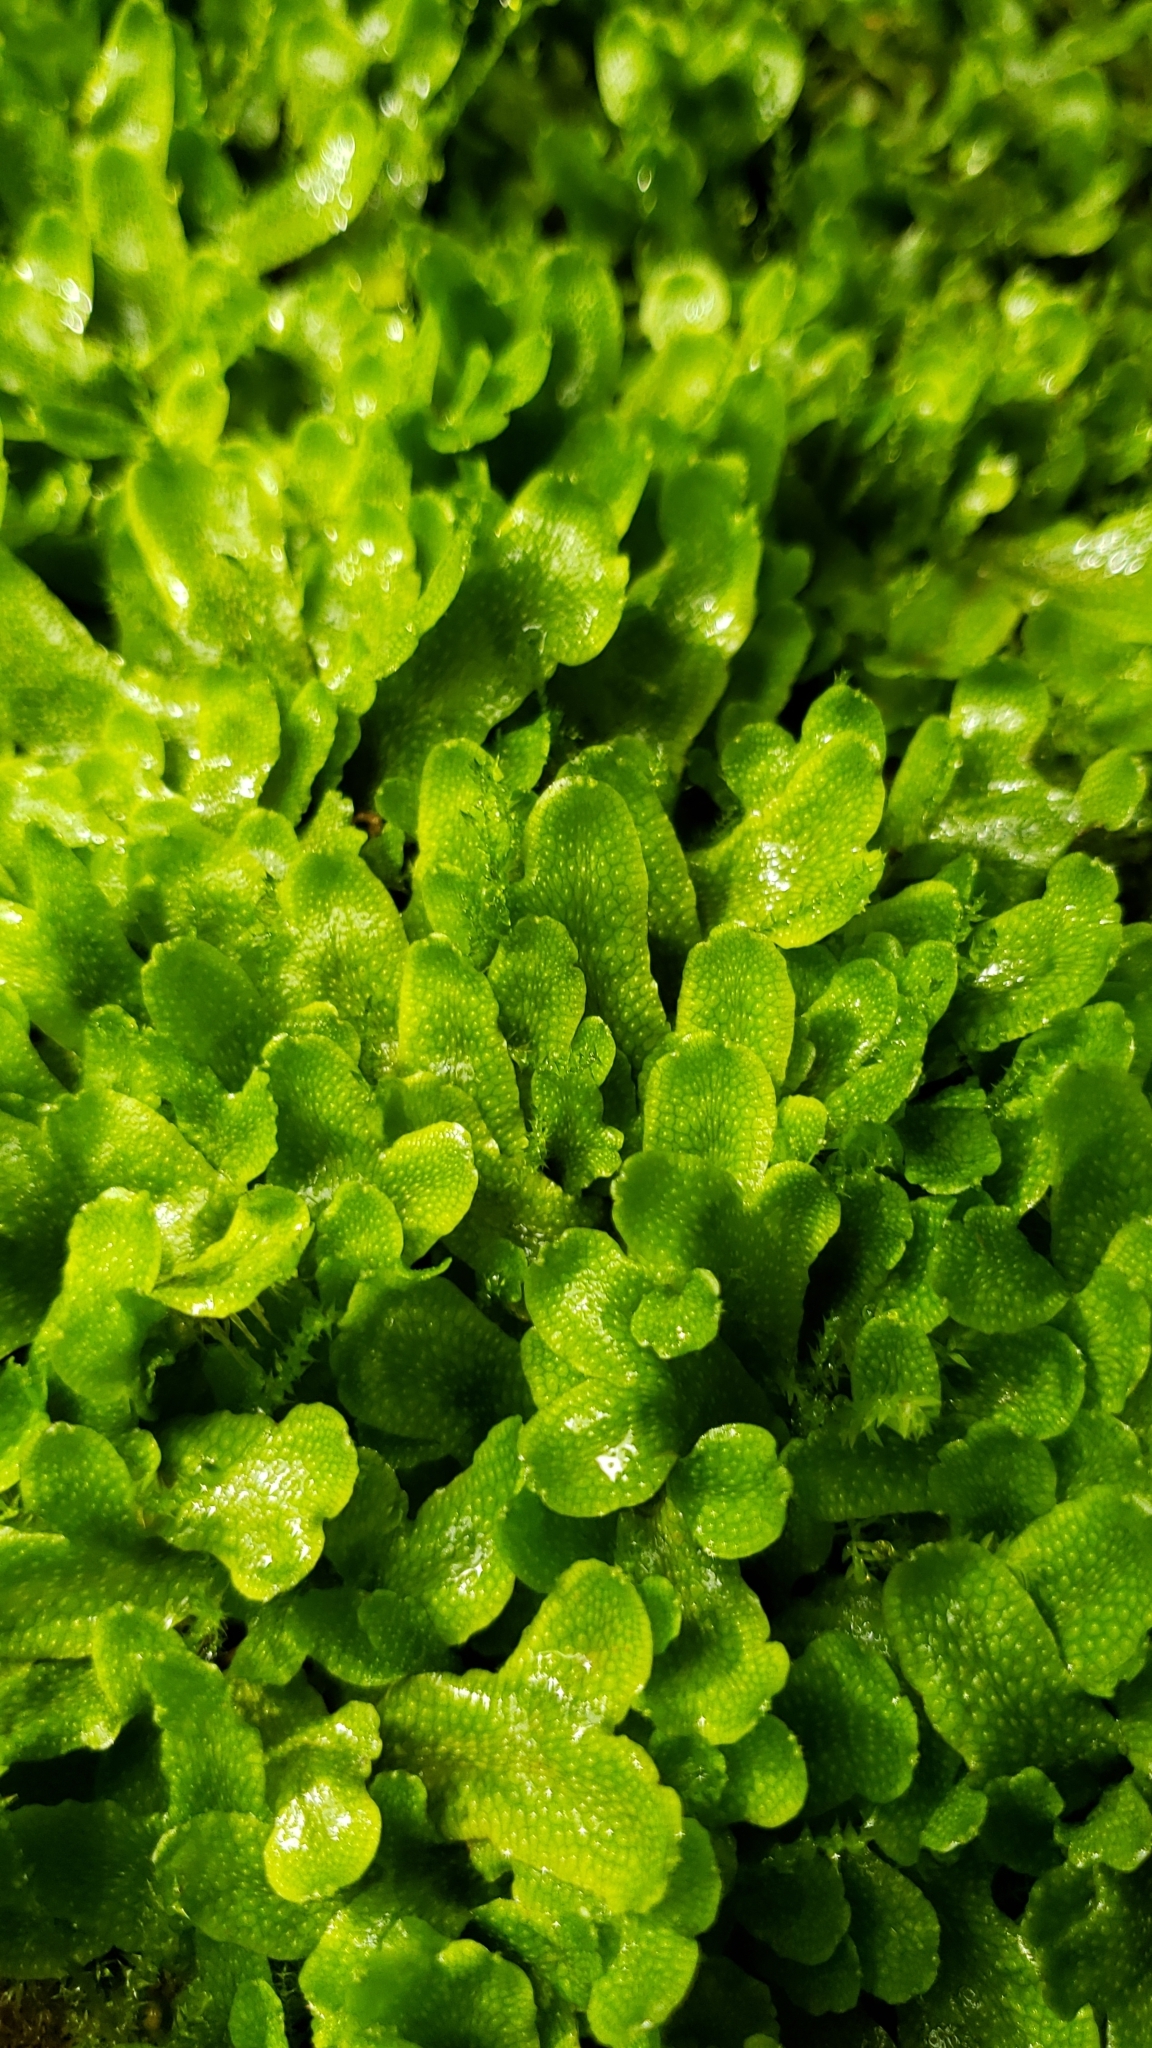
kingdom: Plantae
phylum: Marchantiophyta
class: Marchantiopsida
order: Marchantiales
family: Conocephalaceae
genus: Conocephalum
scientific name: Conocephalum salebrosum
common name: Cat-tongue liverwort
